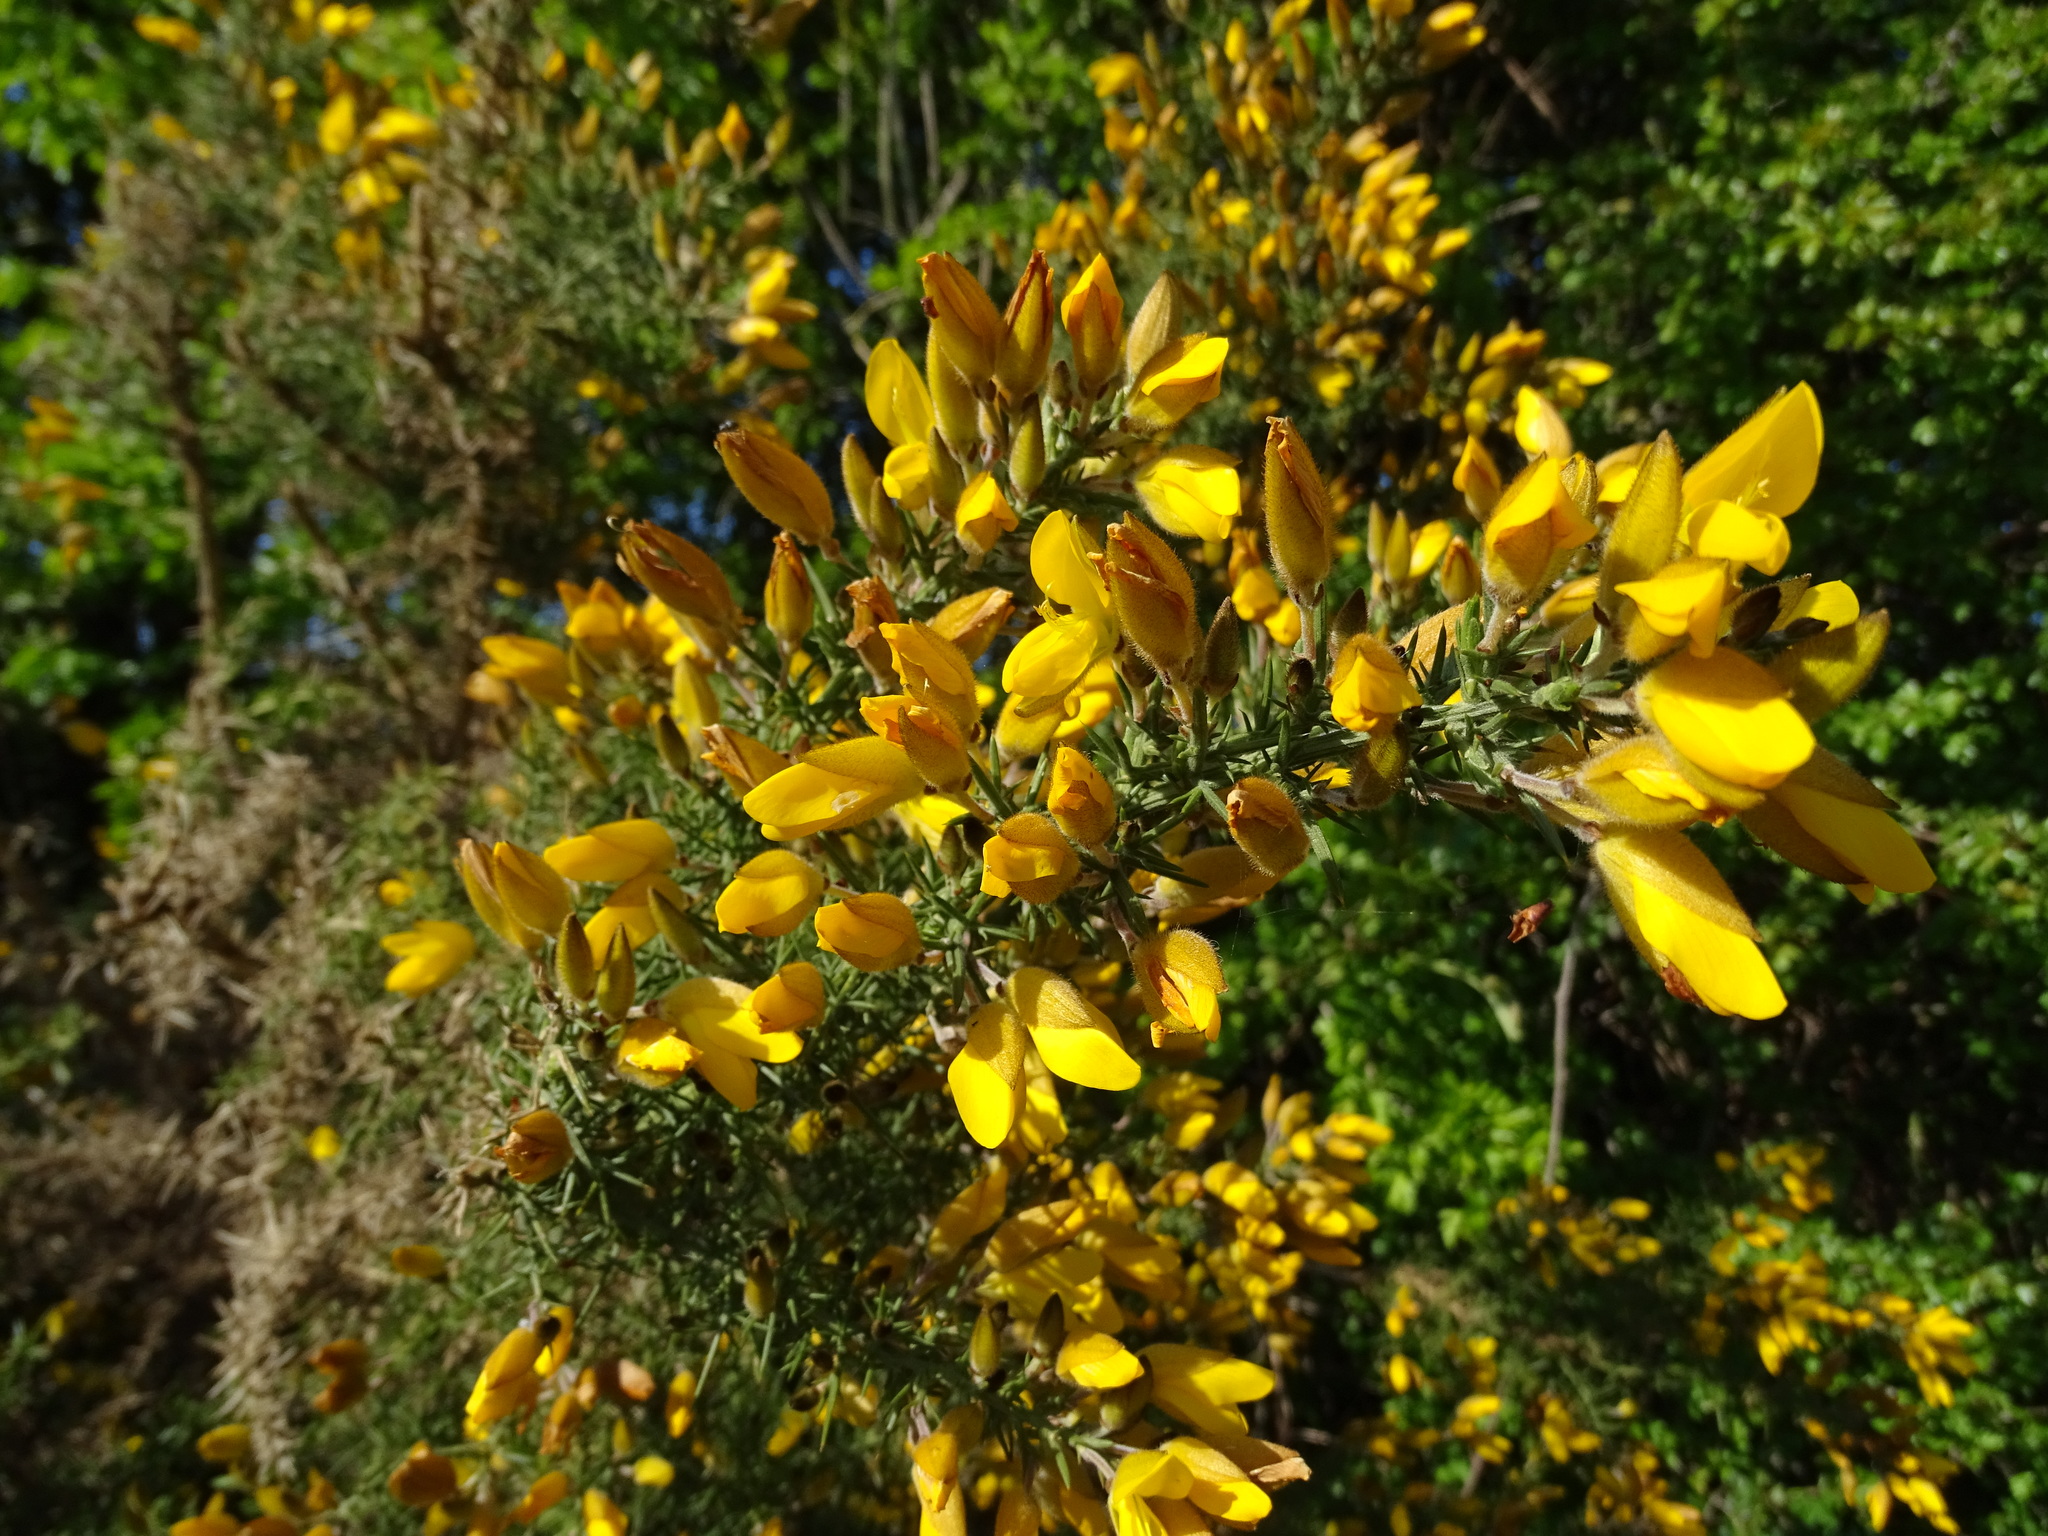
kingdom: Plantae
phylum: Tracheophyta
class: Magnoliopsida
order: Fabales
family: Fabaceae
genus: Ulex
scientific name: Ulex europaeus
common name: Common gorse
